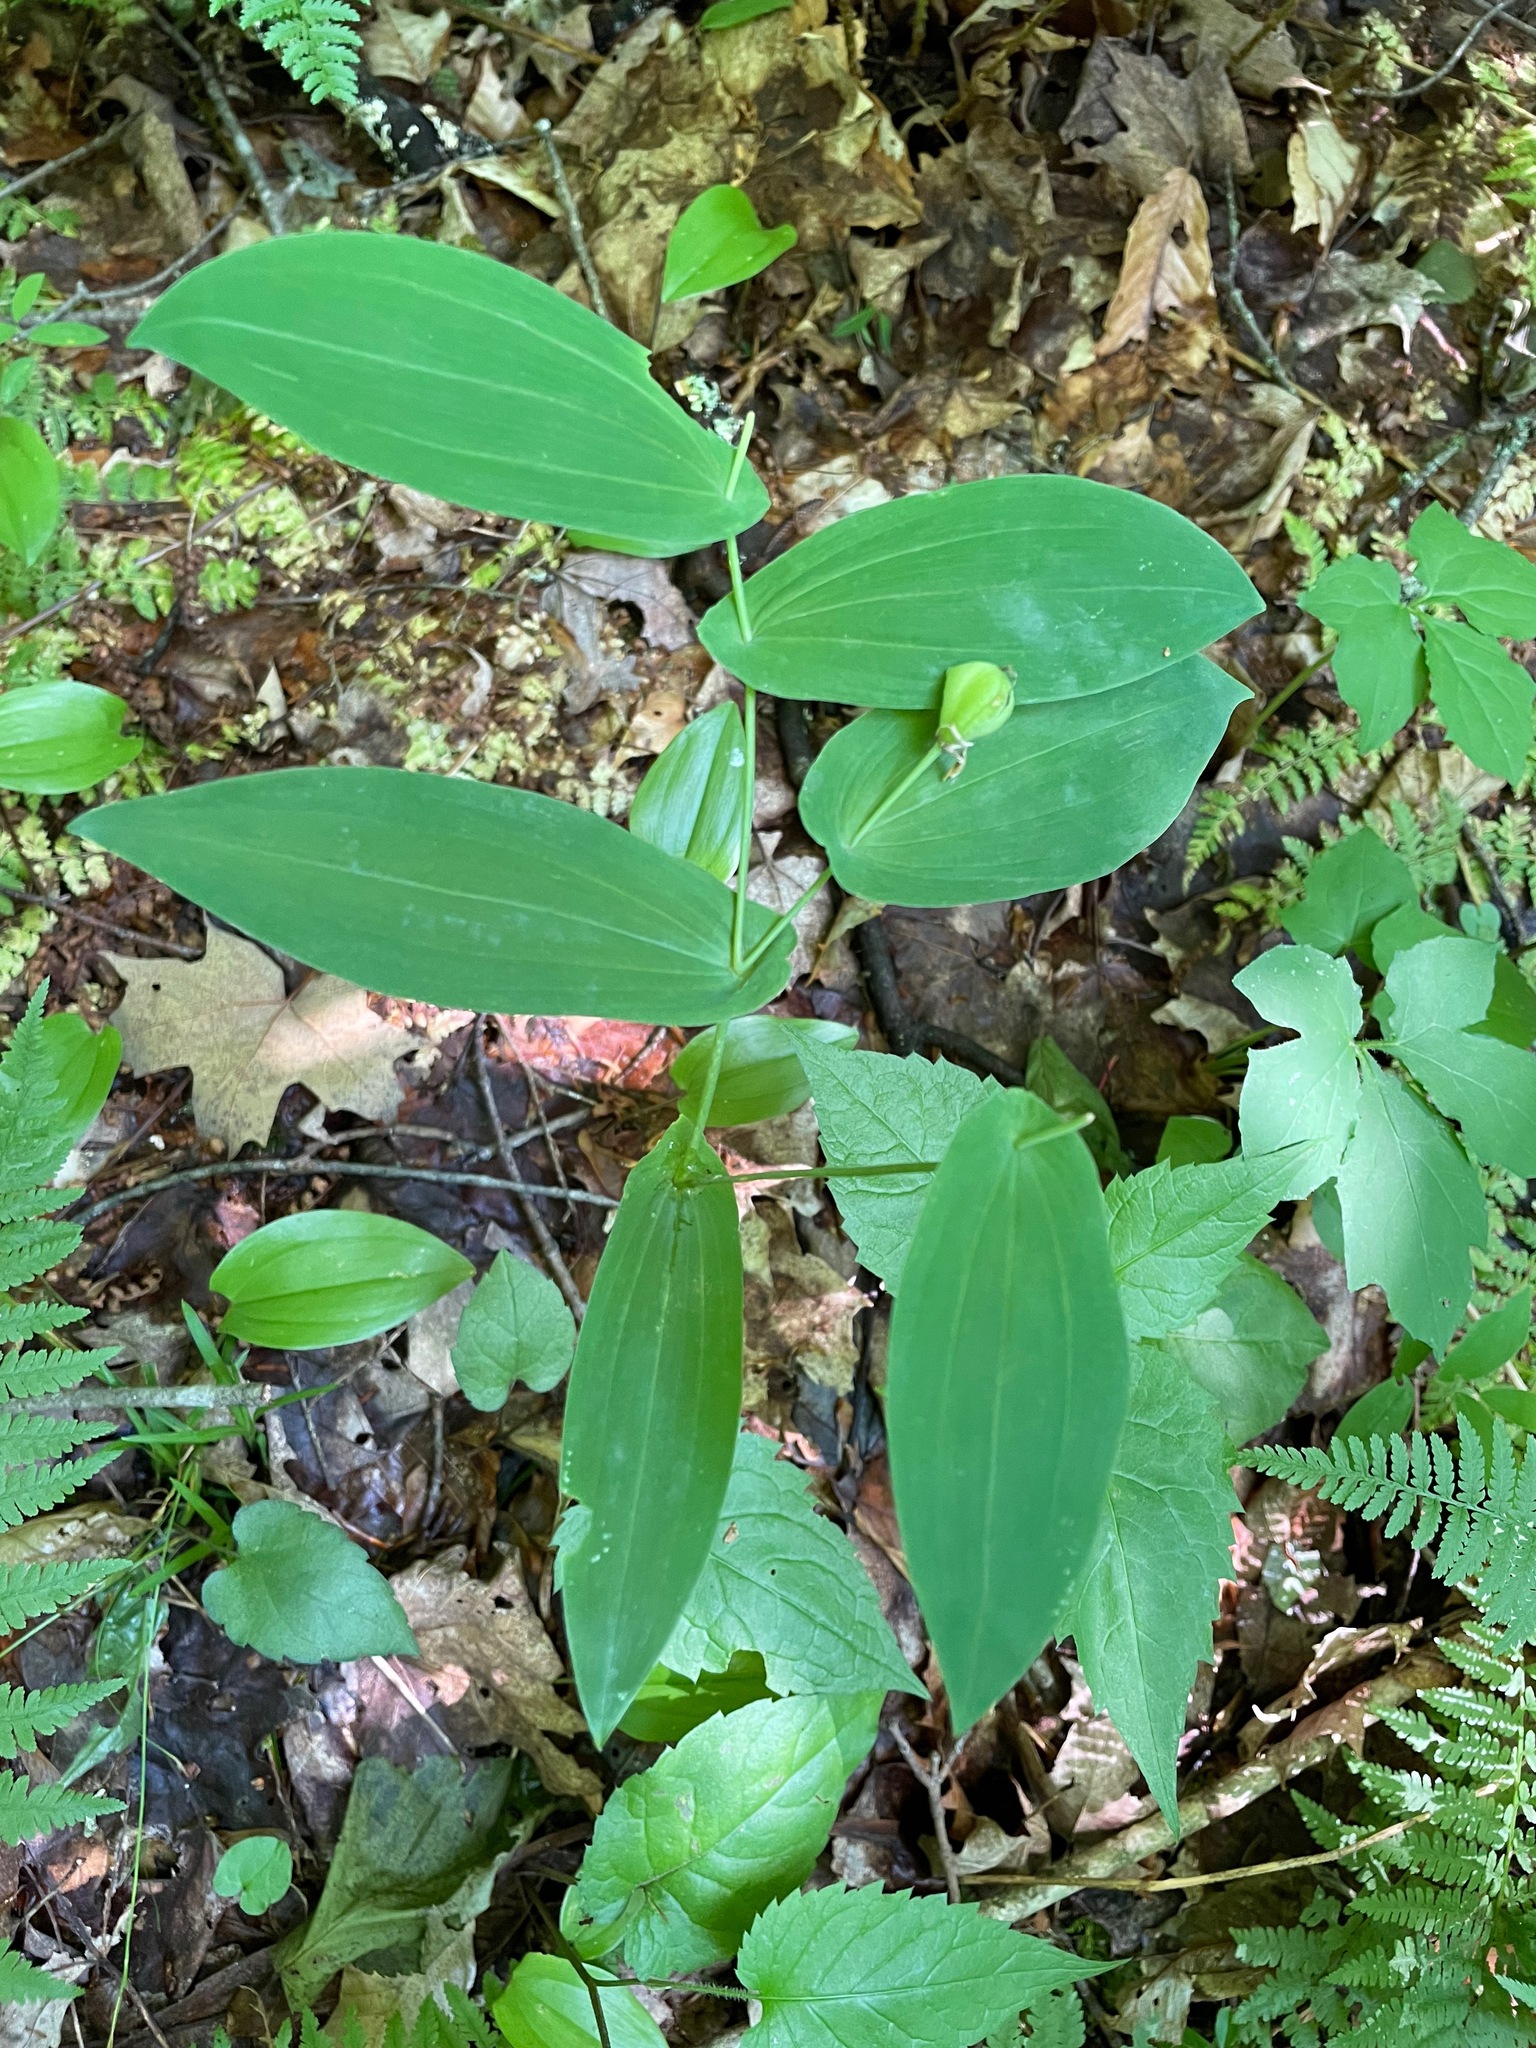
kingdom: Plantae
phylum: Tracheophyta
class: Liliopsida
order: Liliales
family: Colchicaceae
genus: Uvularia
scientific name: Uvularia grandiflora
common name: Bellwort
